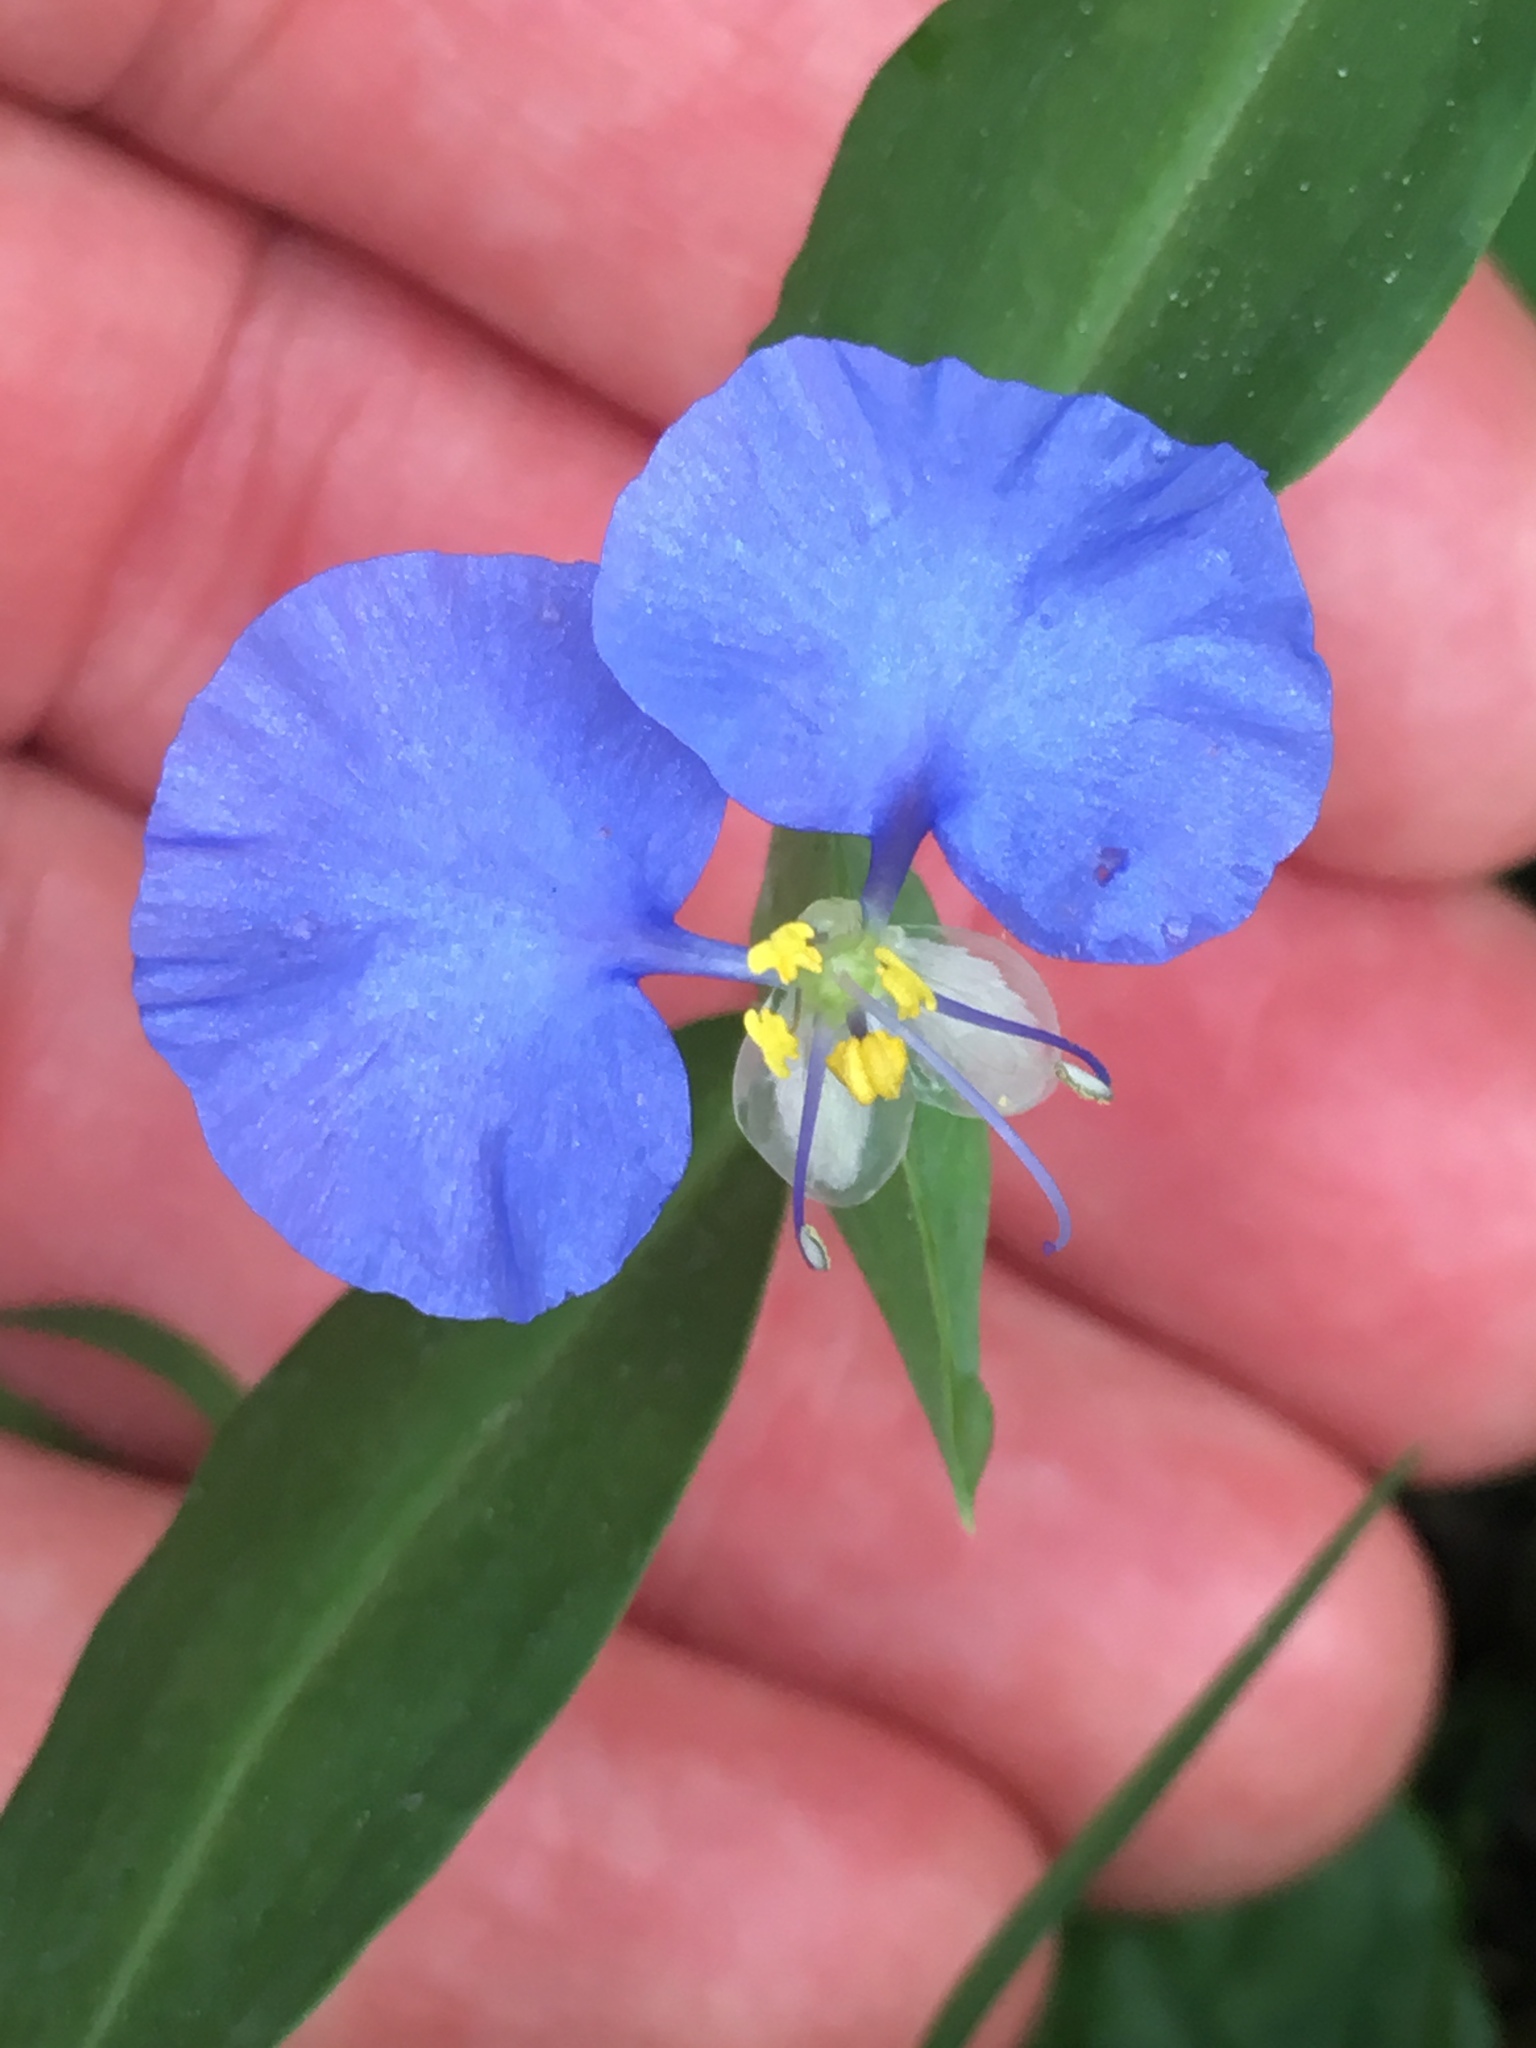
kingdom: Plantae
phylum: Tracheophyta
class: Liliopsida
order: Commelinales
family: Commelinaceae
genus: Commelina
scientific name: Commelina erecta
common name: Blousel blommetjie
